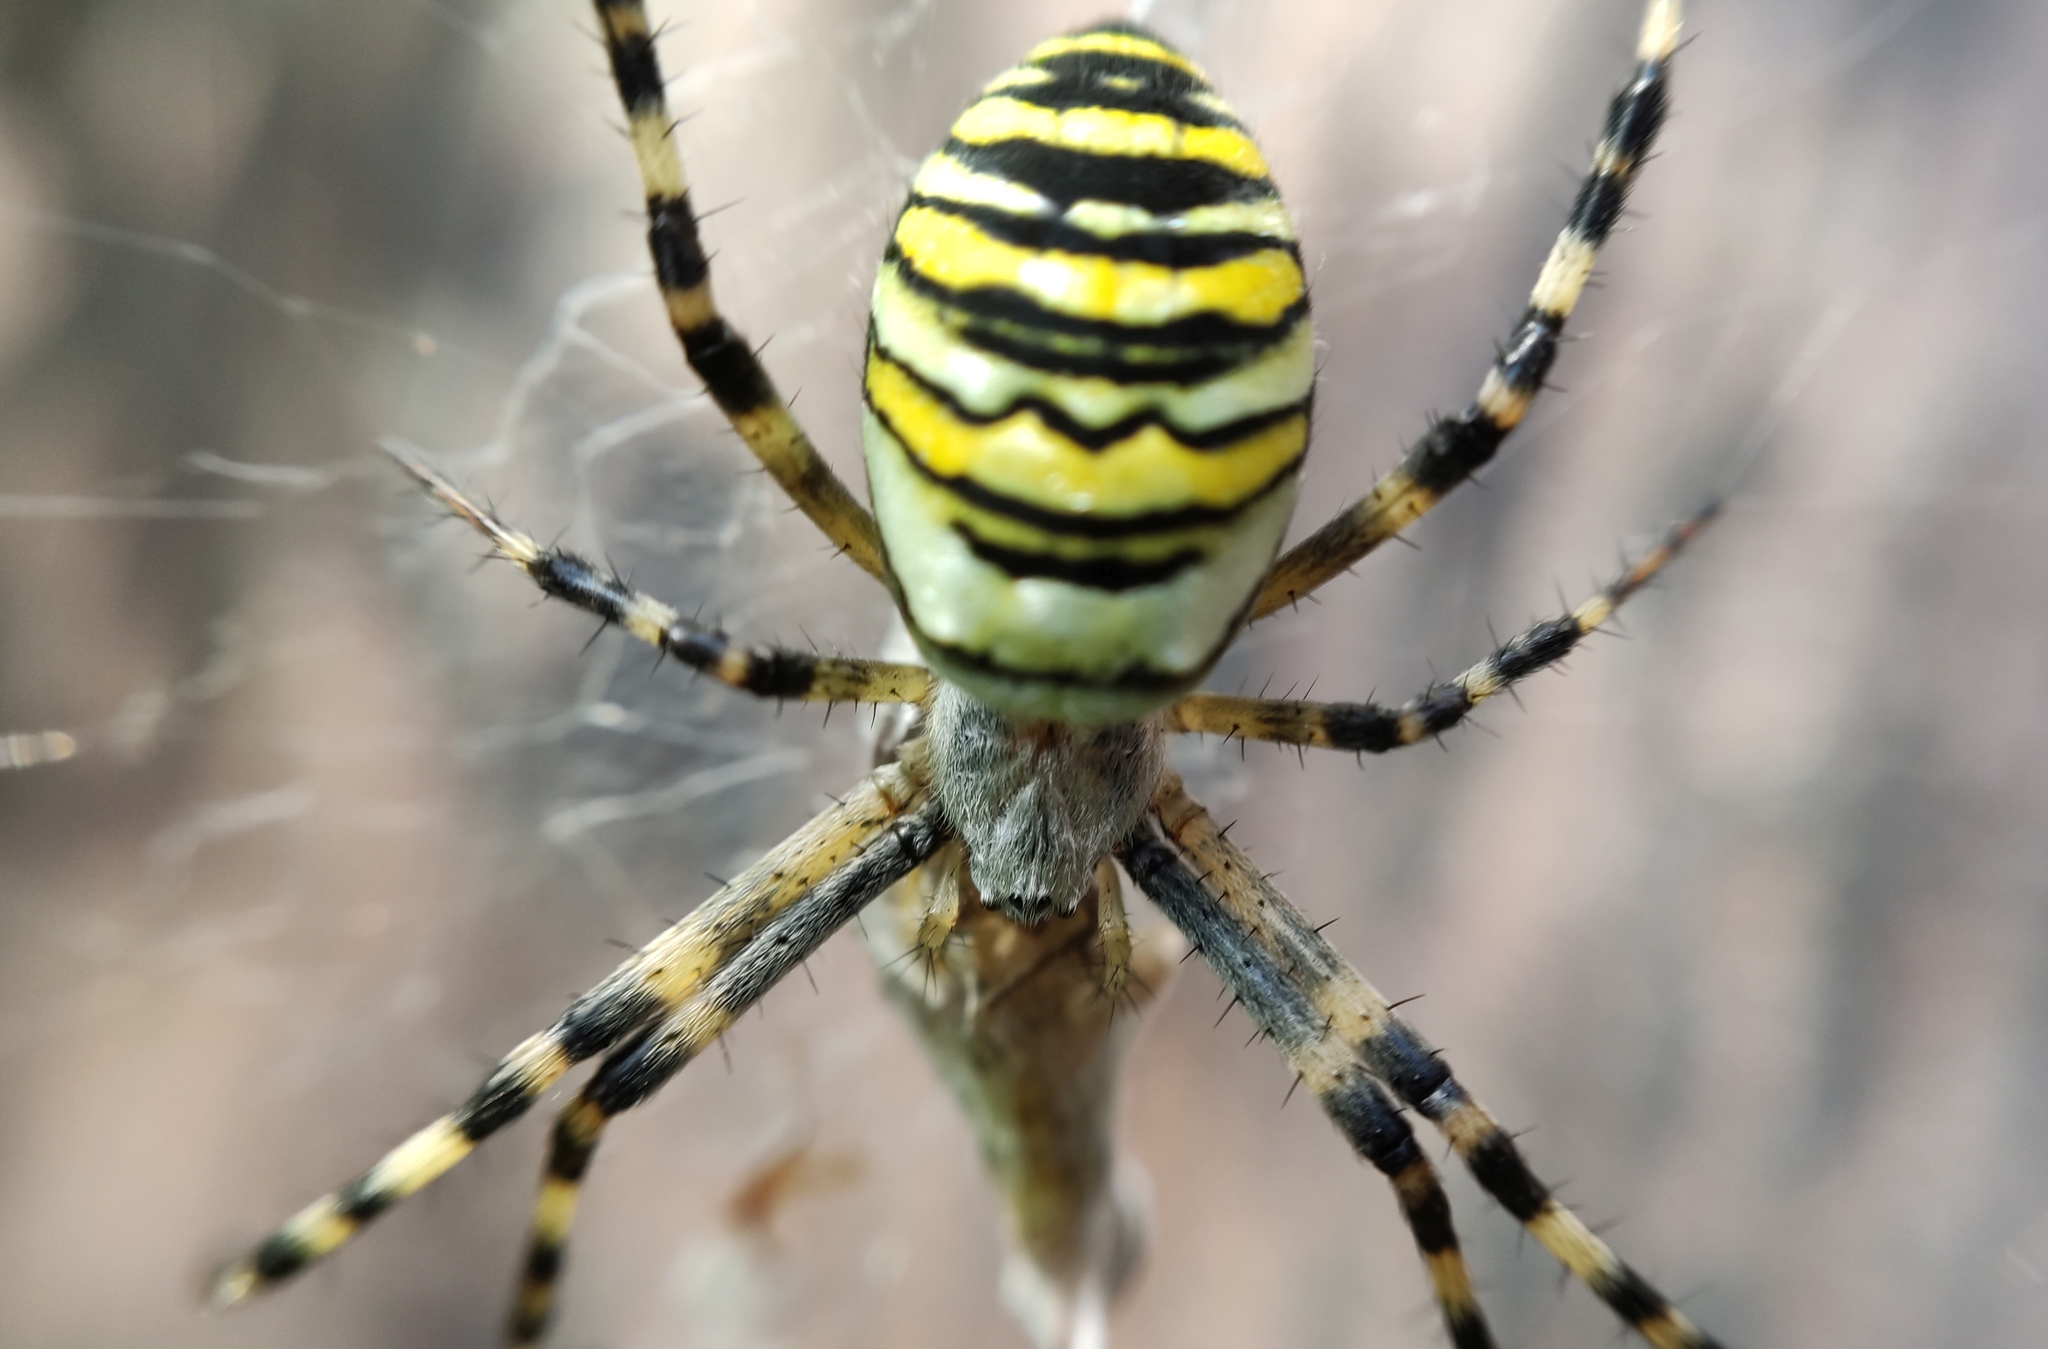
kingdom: Animalia
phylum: Arthropoda
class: Arachnida
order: Araneae
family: Araneidae
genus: Argiope
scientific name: Argiope bruennichi
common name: Wasp spider
